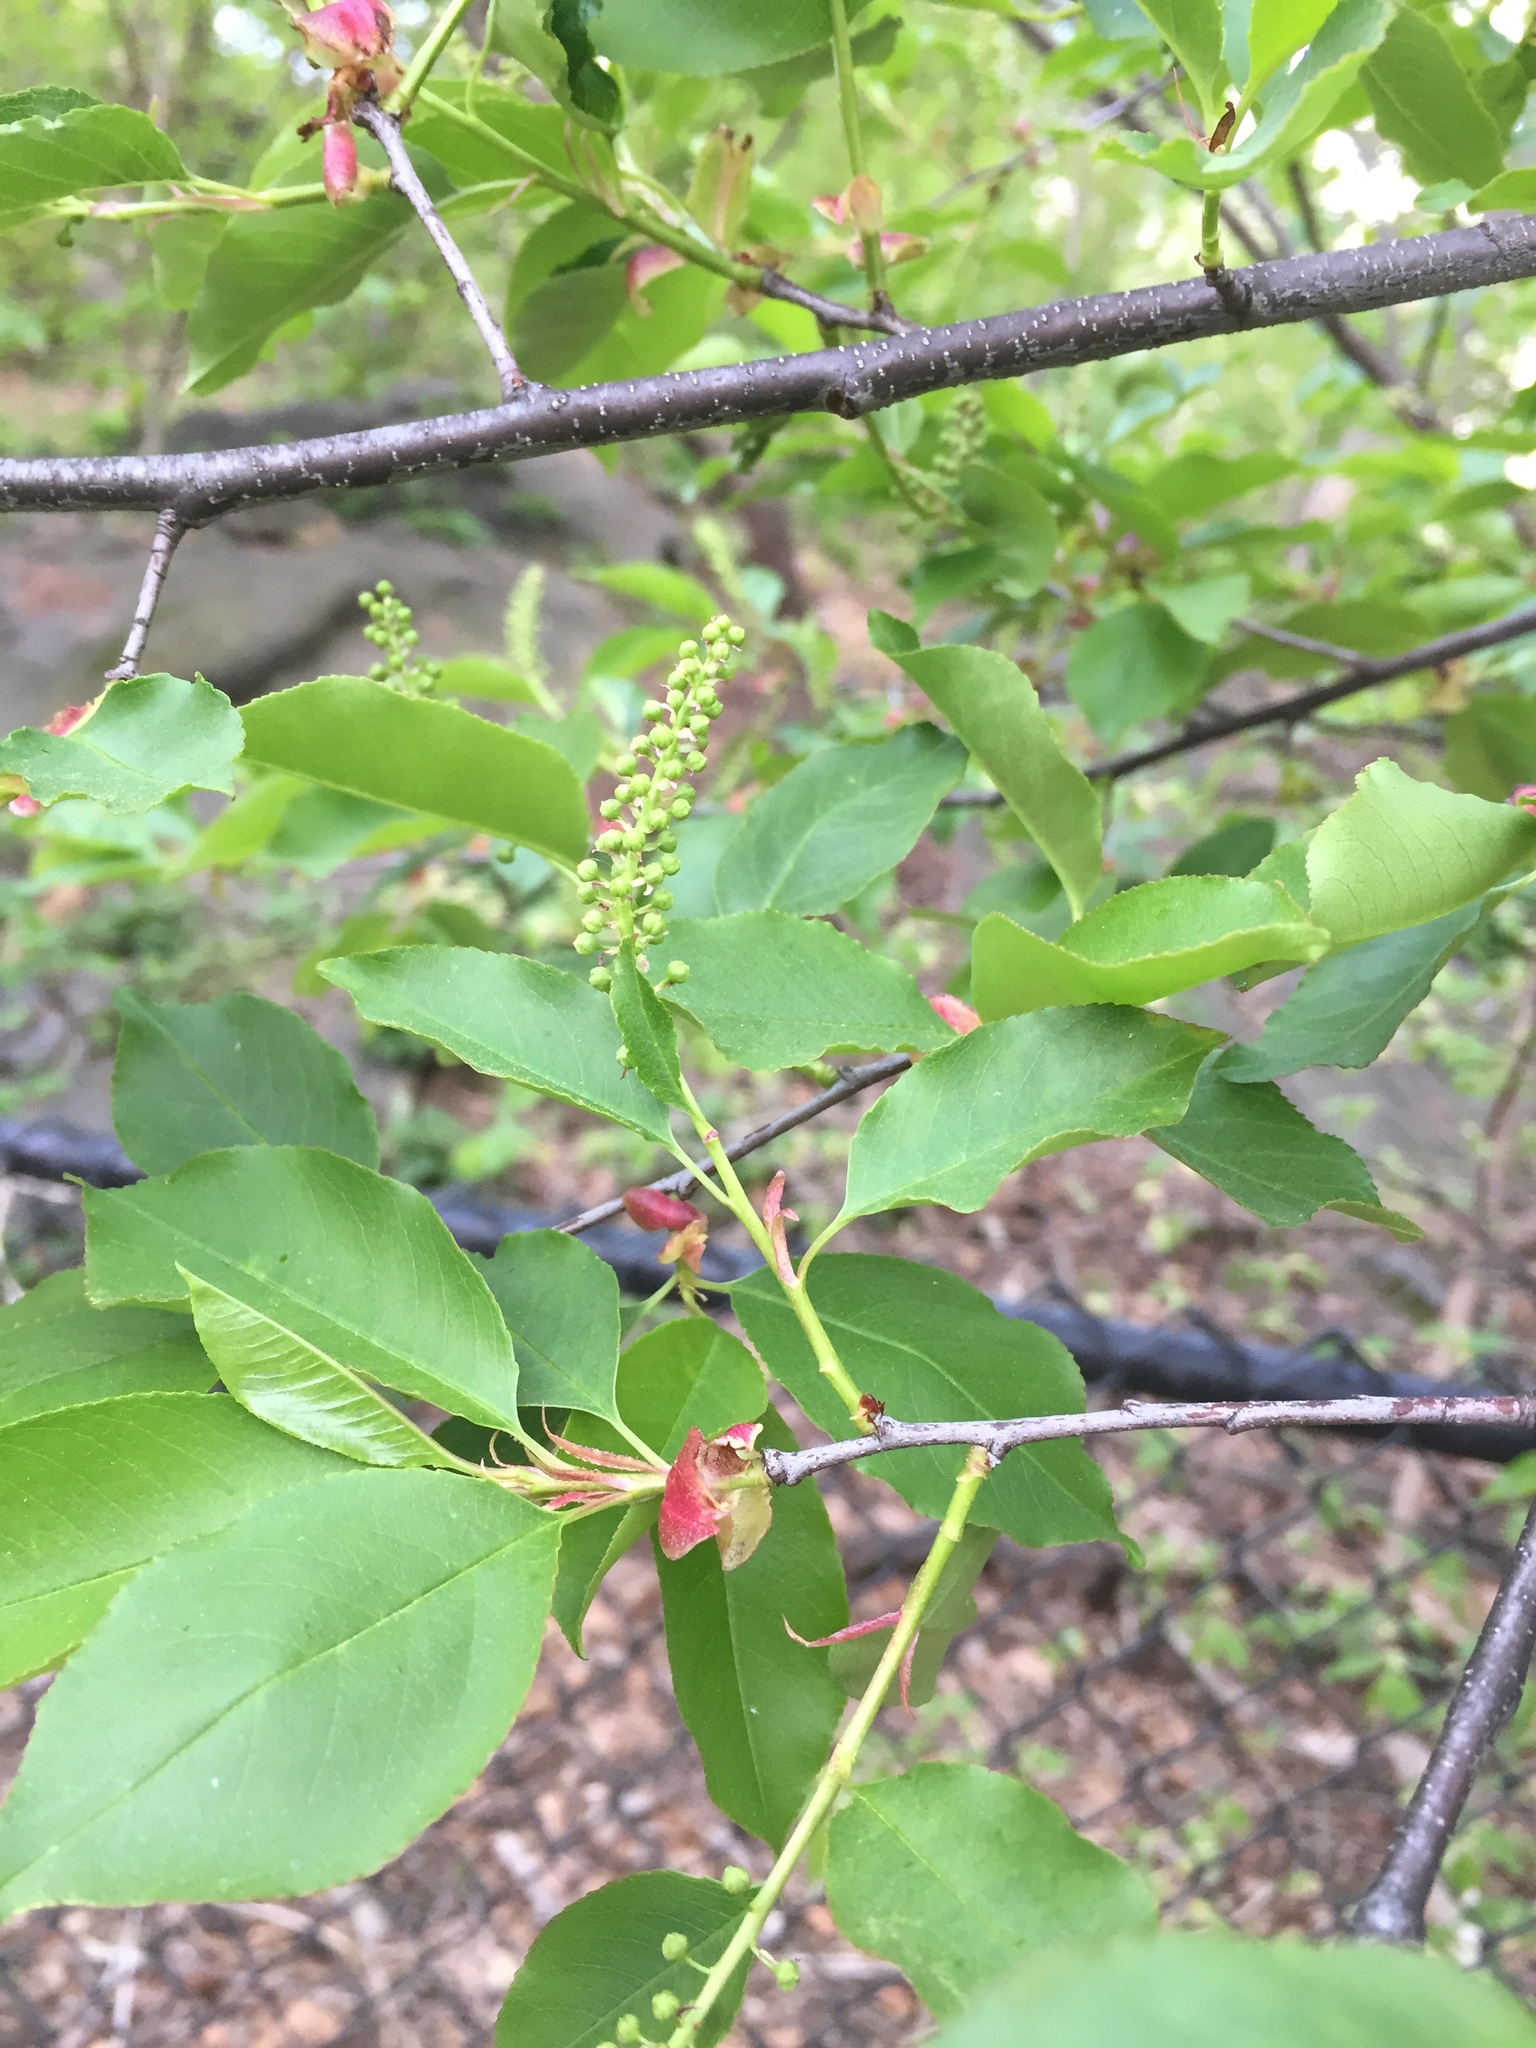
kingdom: Plantae
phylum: Tracheophyta
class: Magnoliopsida
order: Rosales
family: Rosaceae
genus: Prunus
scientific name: Prunus serotina
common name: Black cherry
